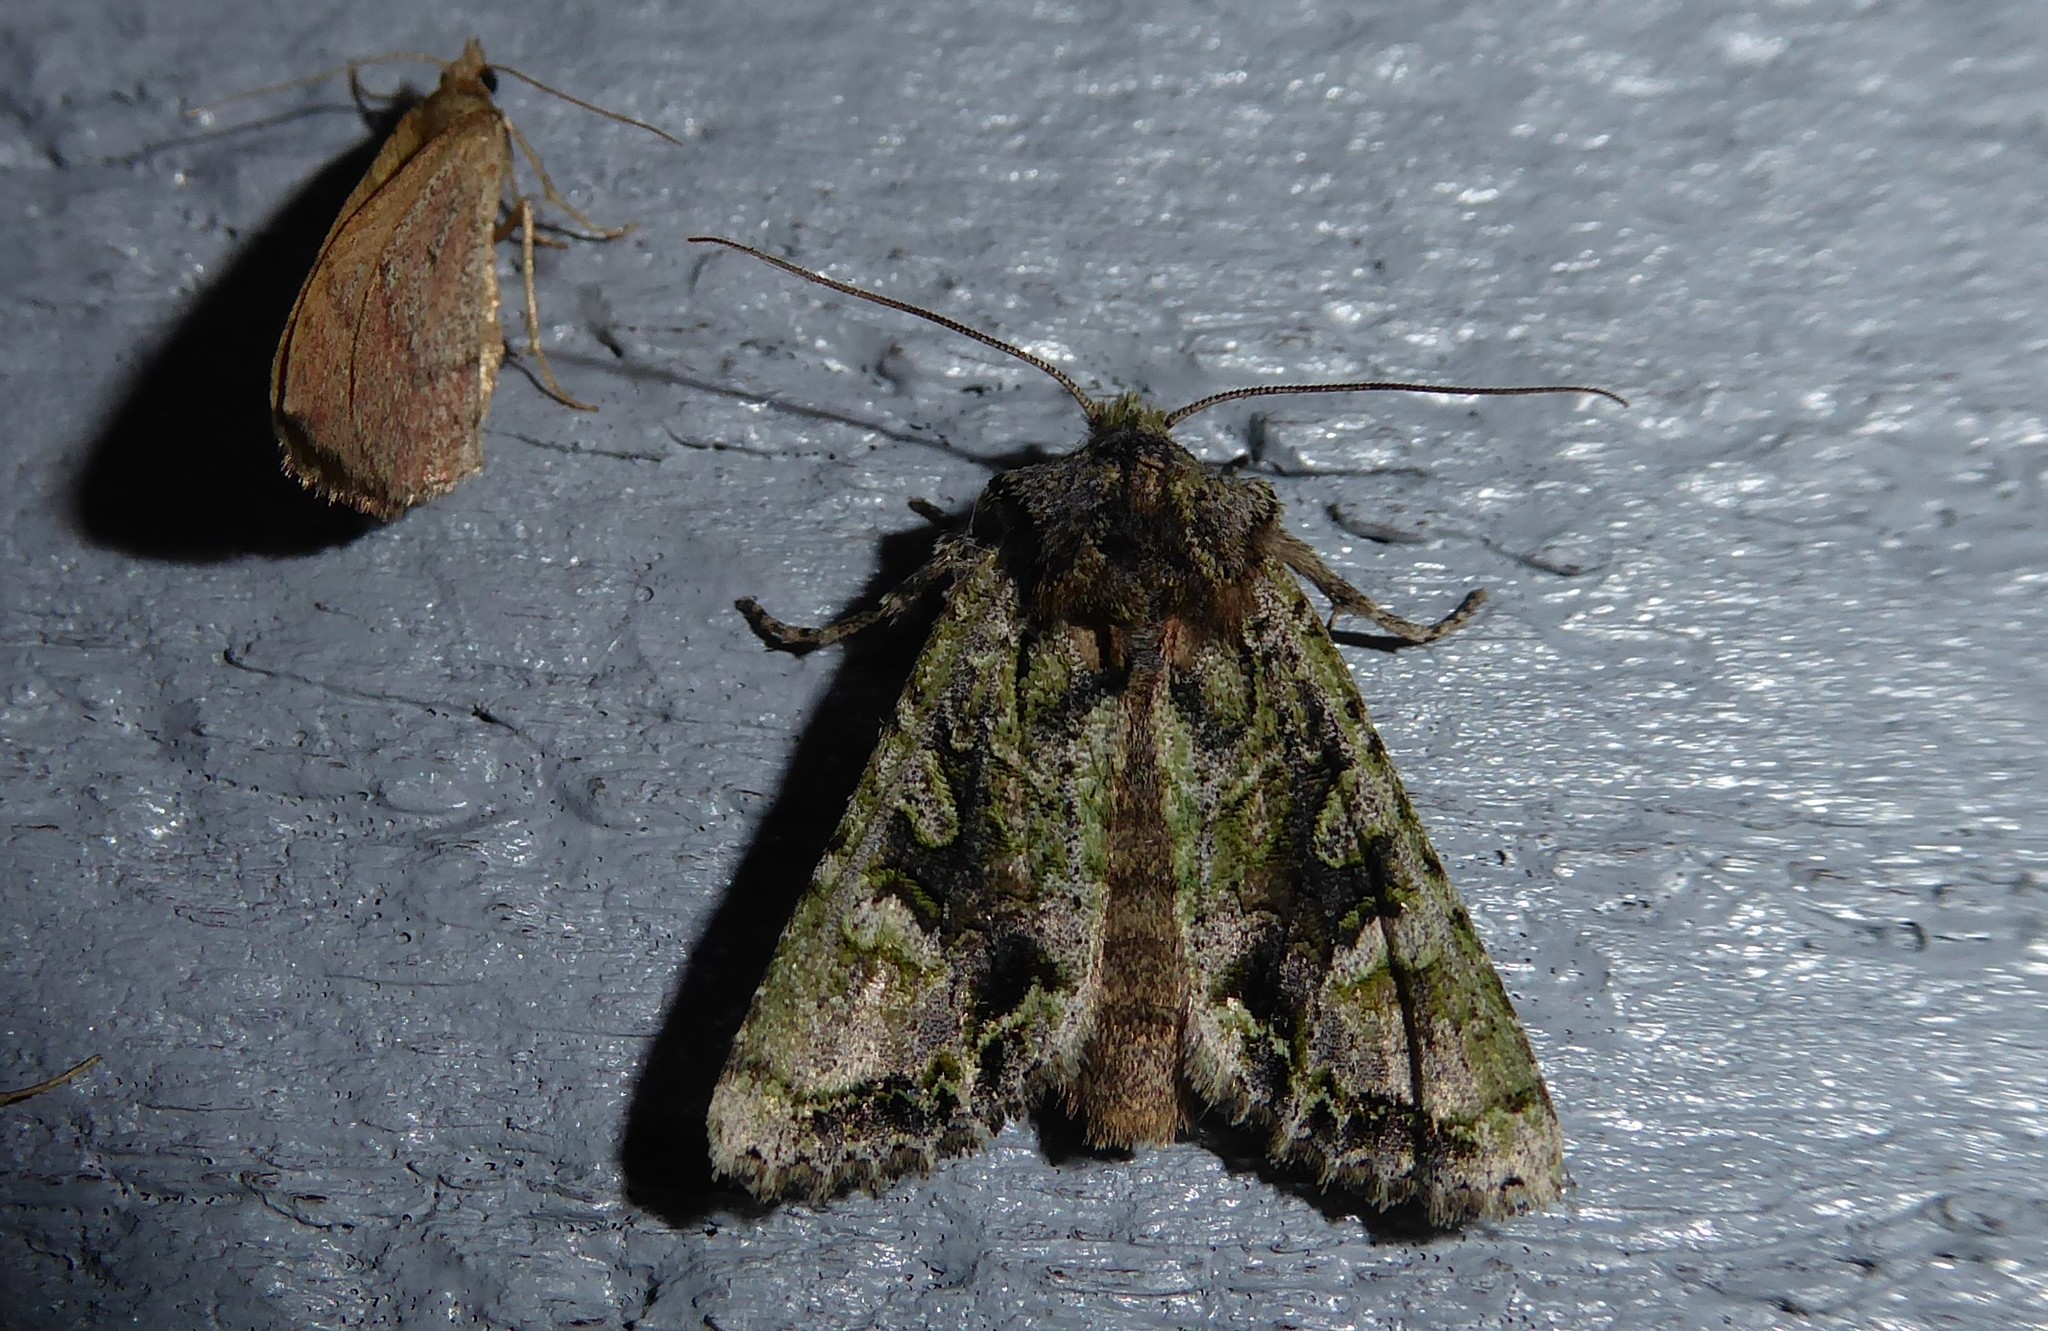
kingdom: Animalia
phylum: Arthropoda
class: Insecta
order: Lepidoptera
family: Noctuidae
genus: Ichneutica
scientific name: Ichneutica
